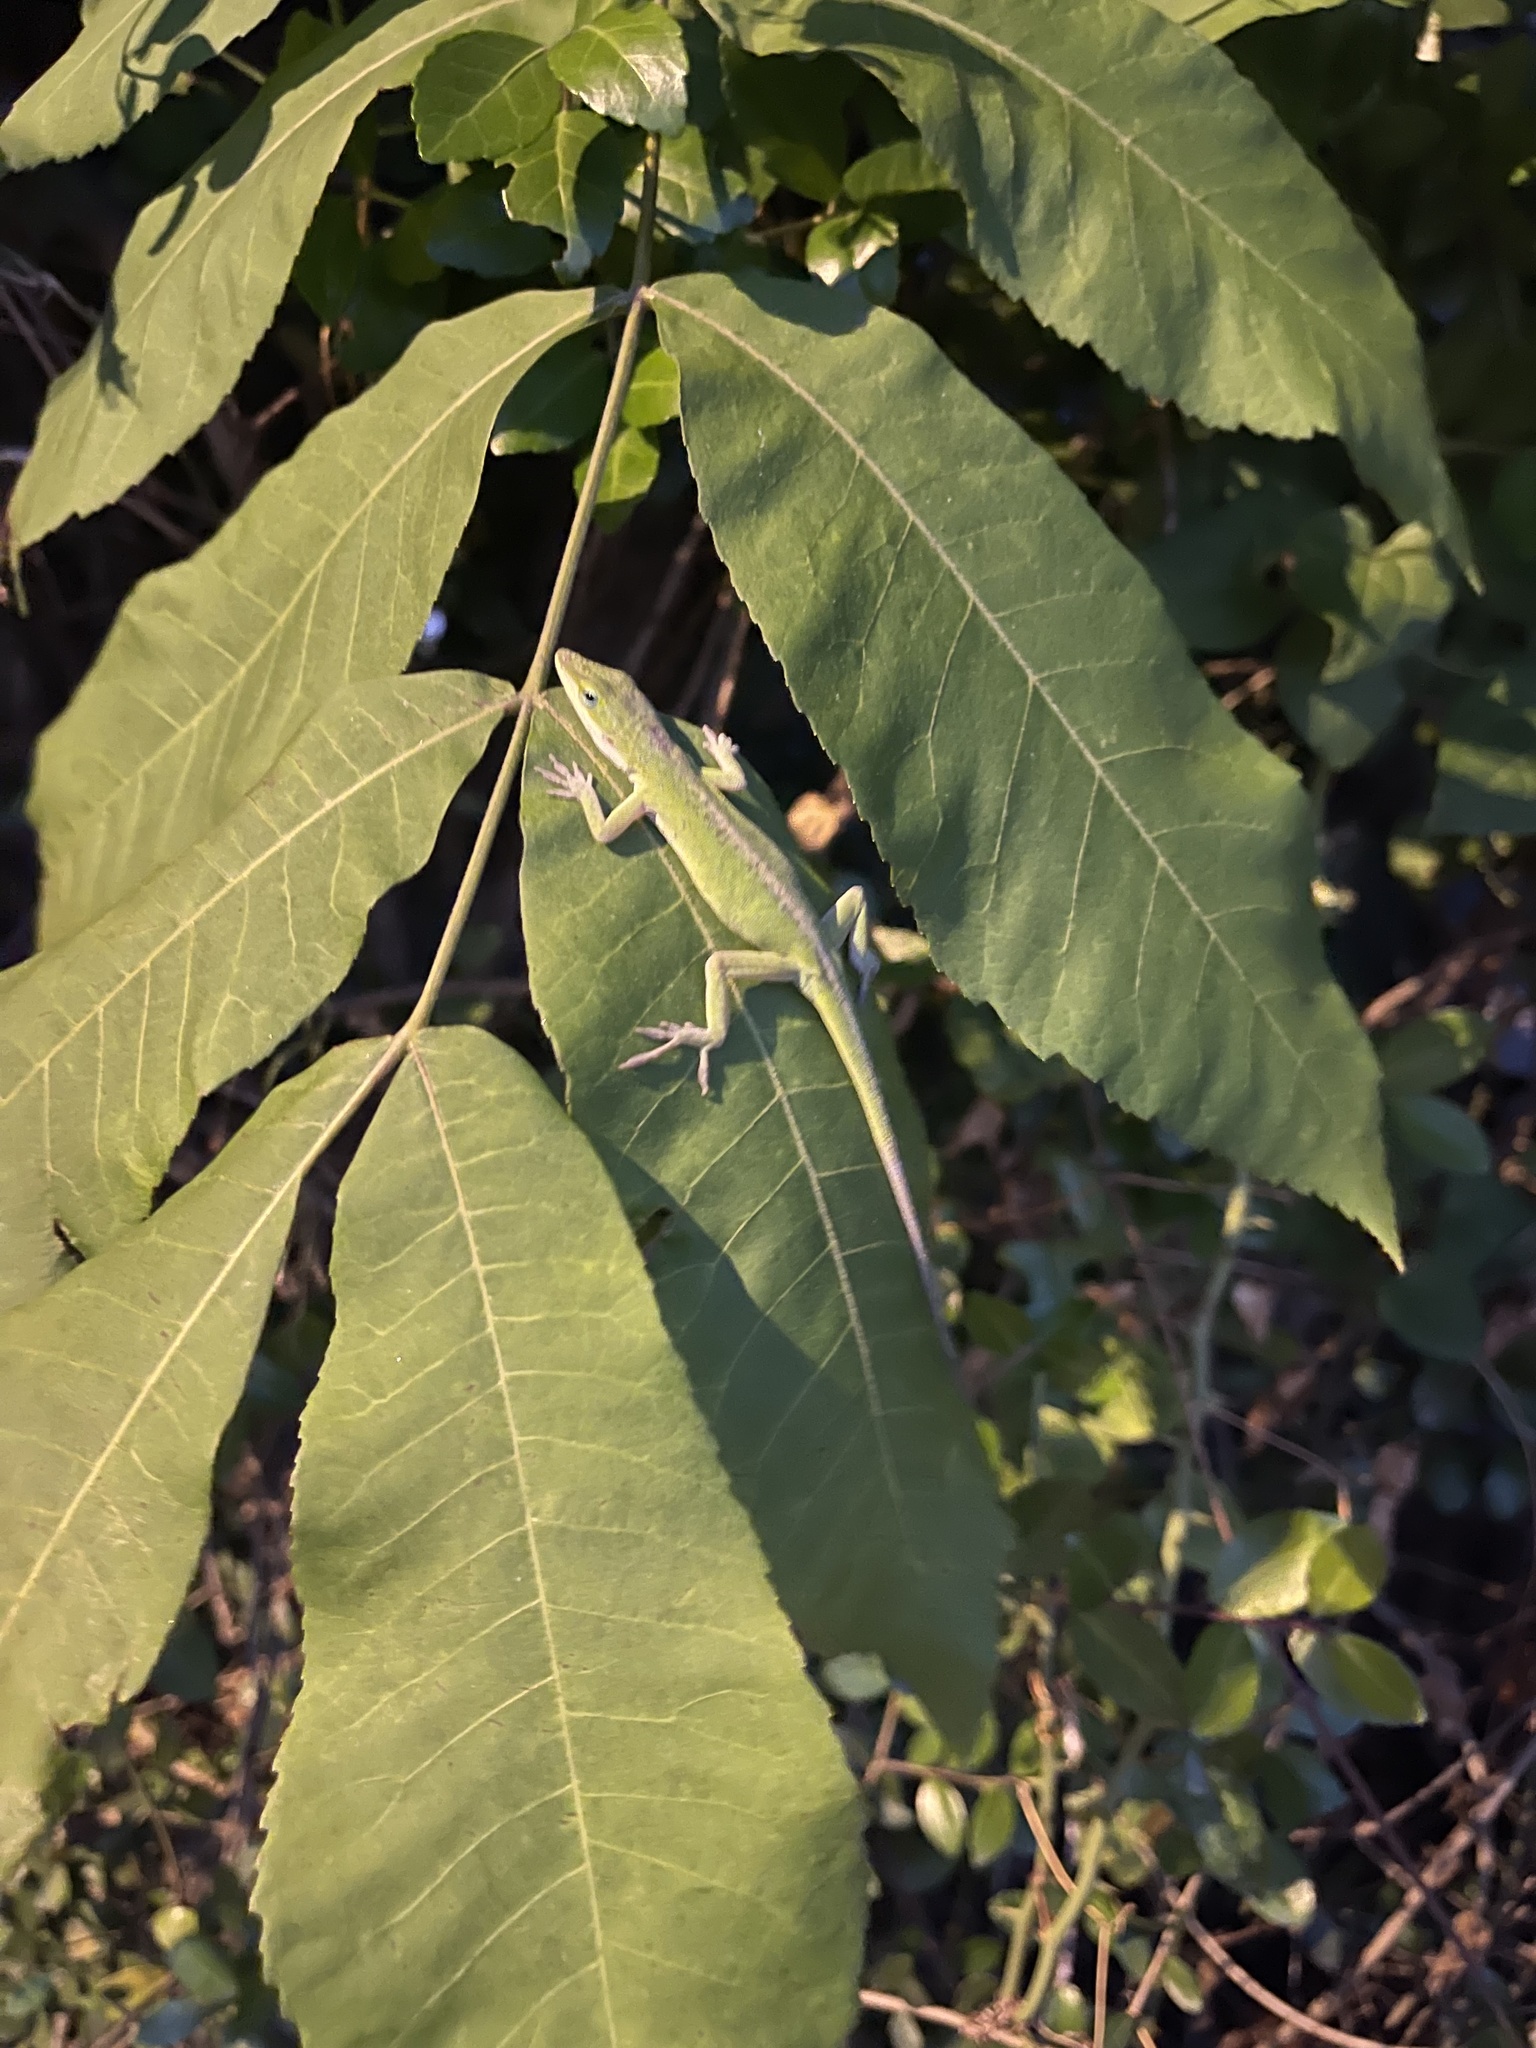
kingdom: Animalia
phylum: Chordata
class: Squamata
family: Dactyloidae
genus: Anolis
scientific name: Anolis carolinensis
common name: Green anole
